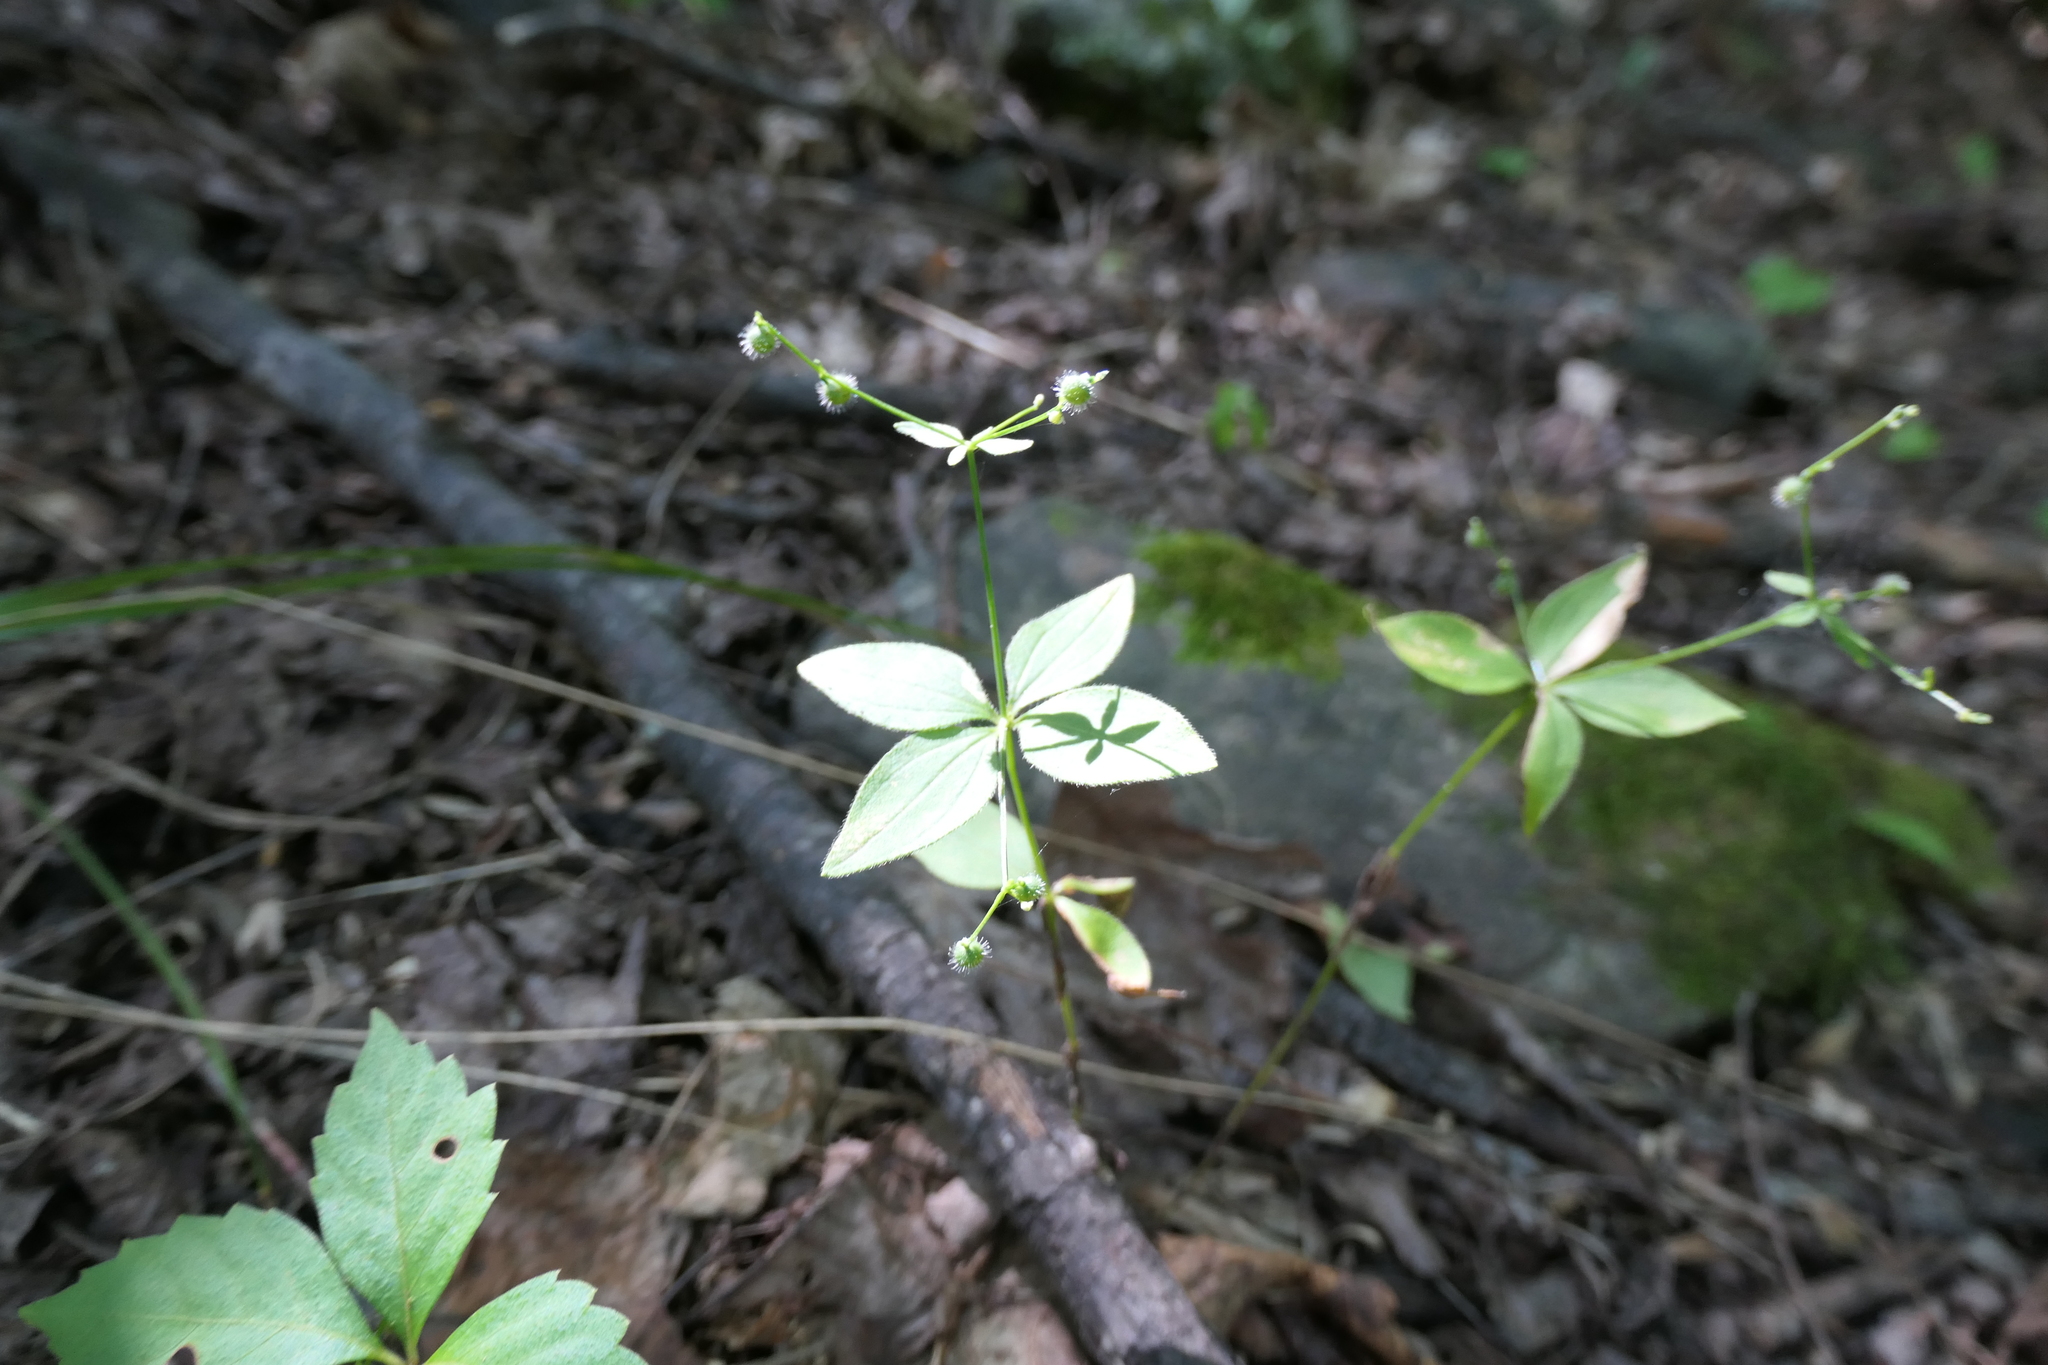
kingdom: Plantae
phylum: Tracheophyta
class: Magnoliopsida
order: Gentianales
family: Rubiaceae
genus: Galium
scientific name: Galium circaezans
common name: Forest bedstraw
